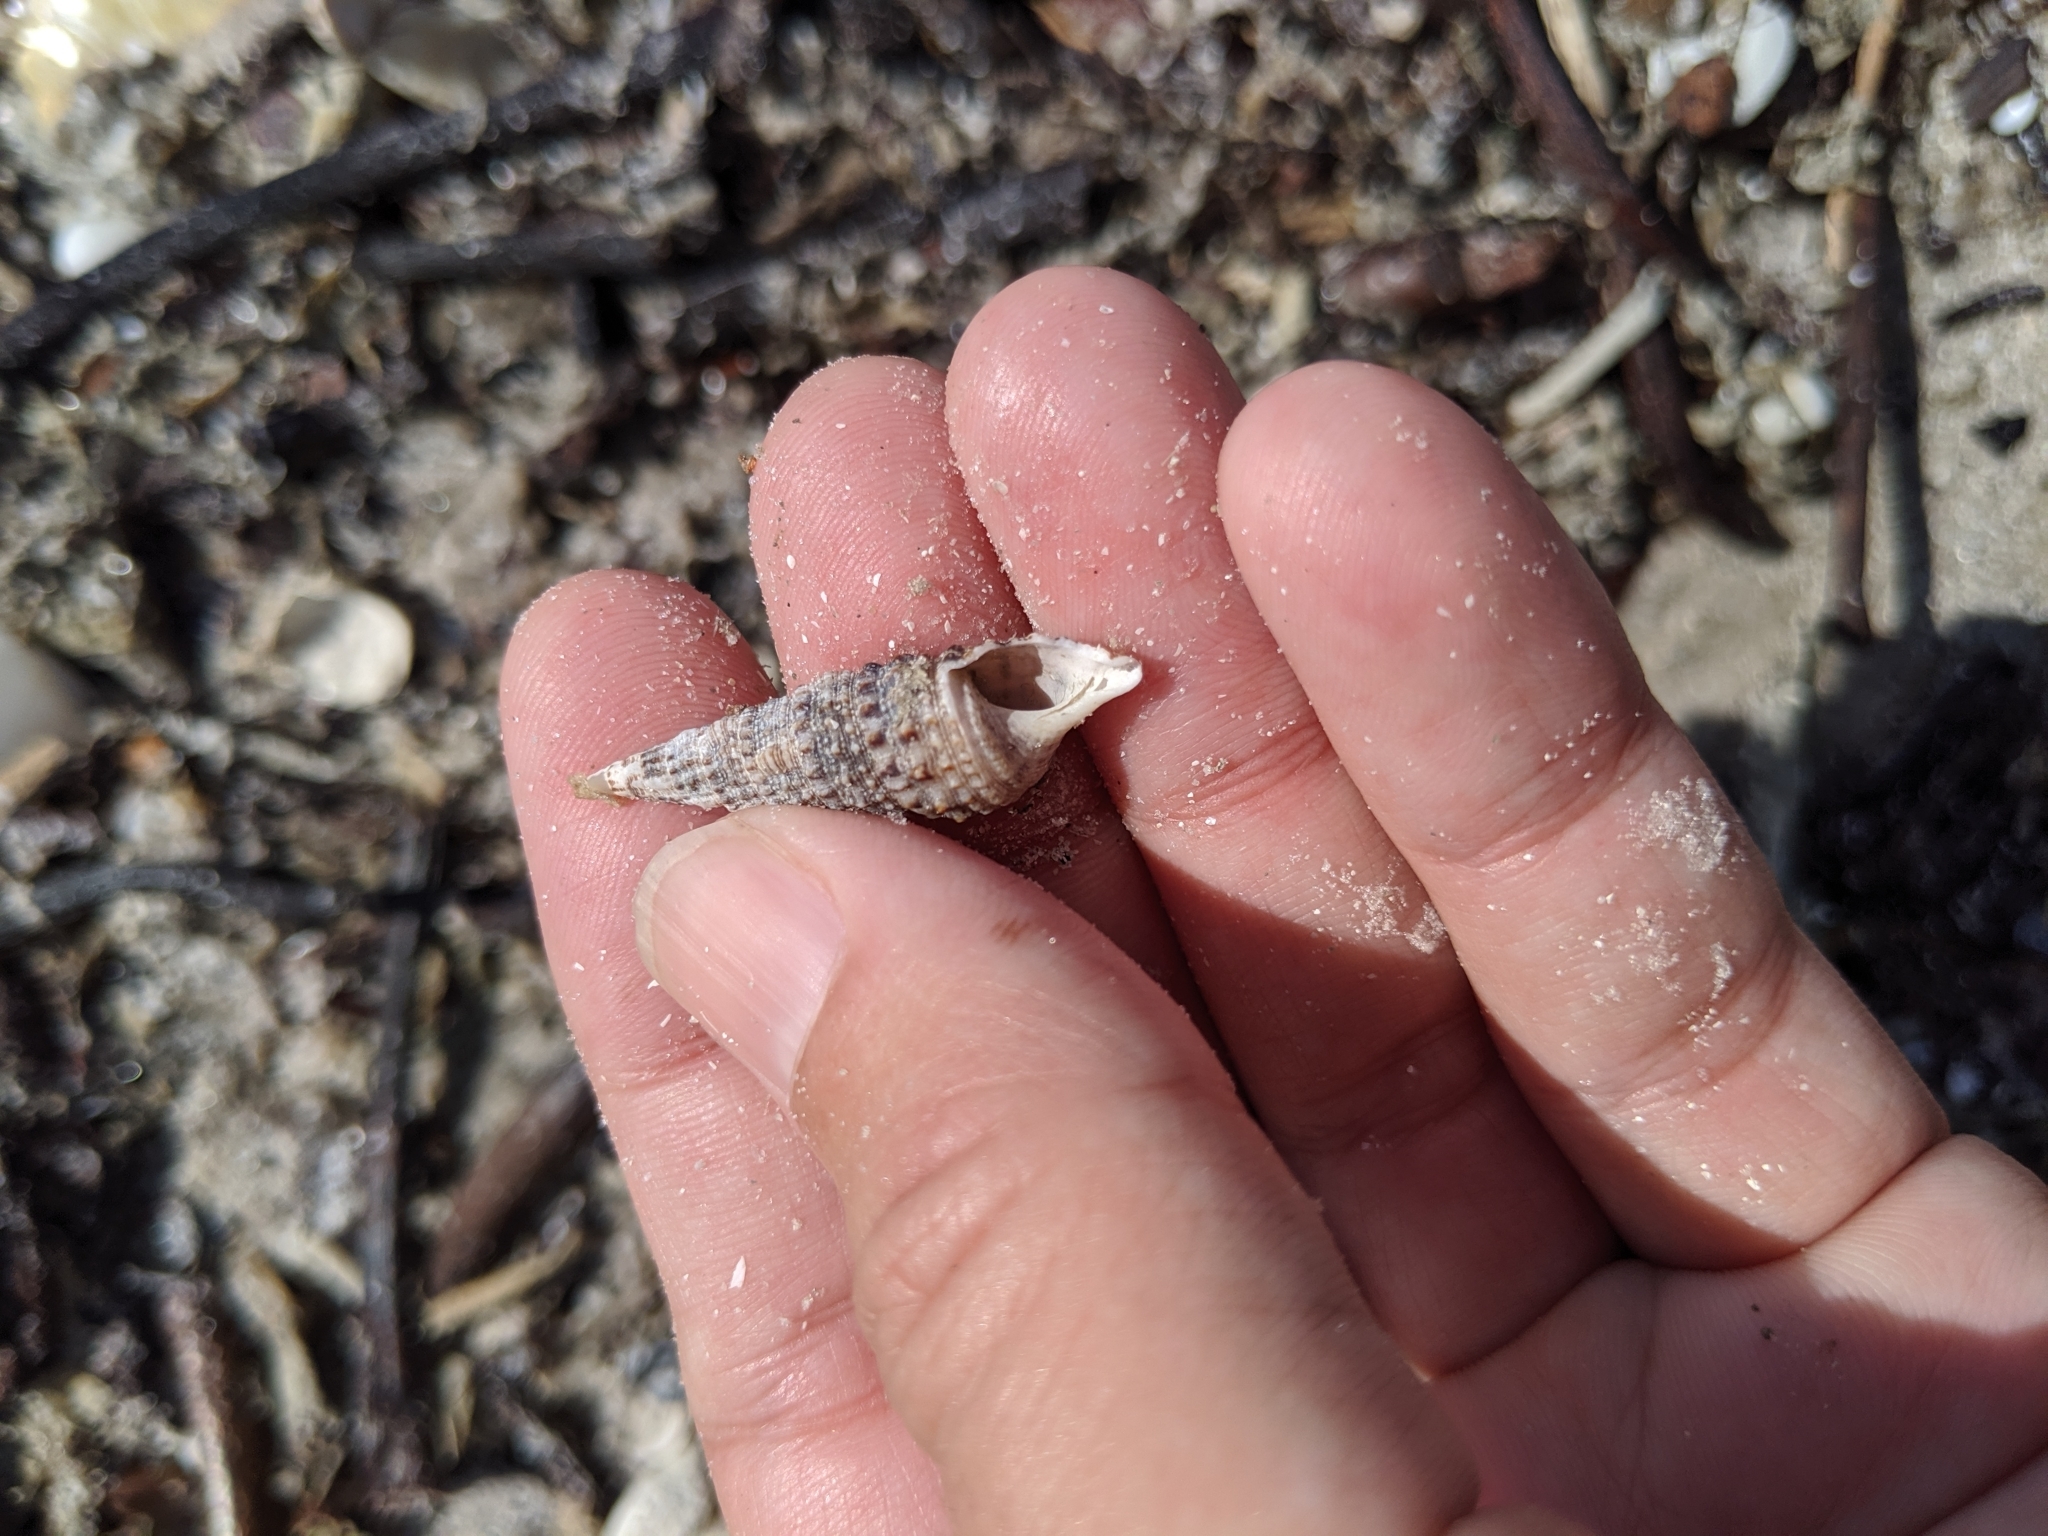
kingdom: Animalia
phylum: Mollusca
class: Gastropoda
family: Cerithiidae
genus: Cerithium
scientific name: Cerithium atratum
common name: Dark cerith
